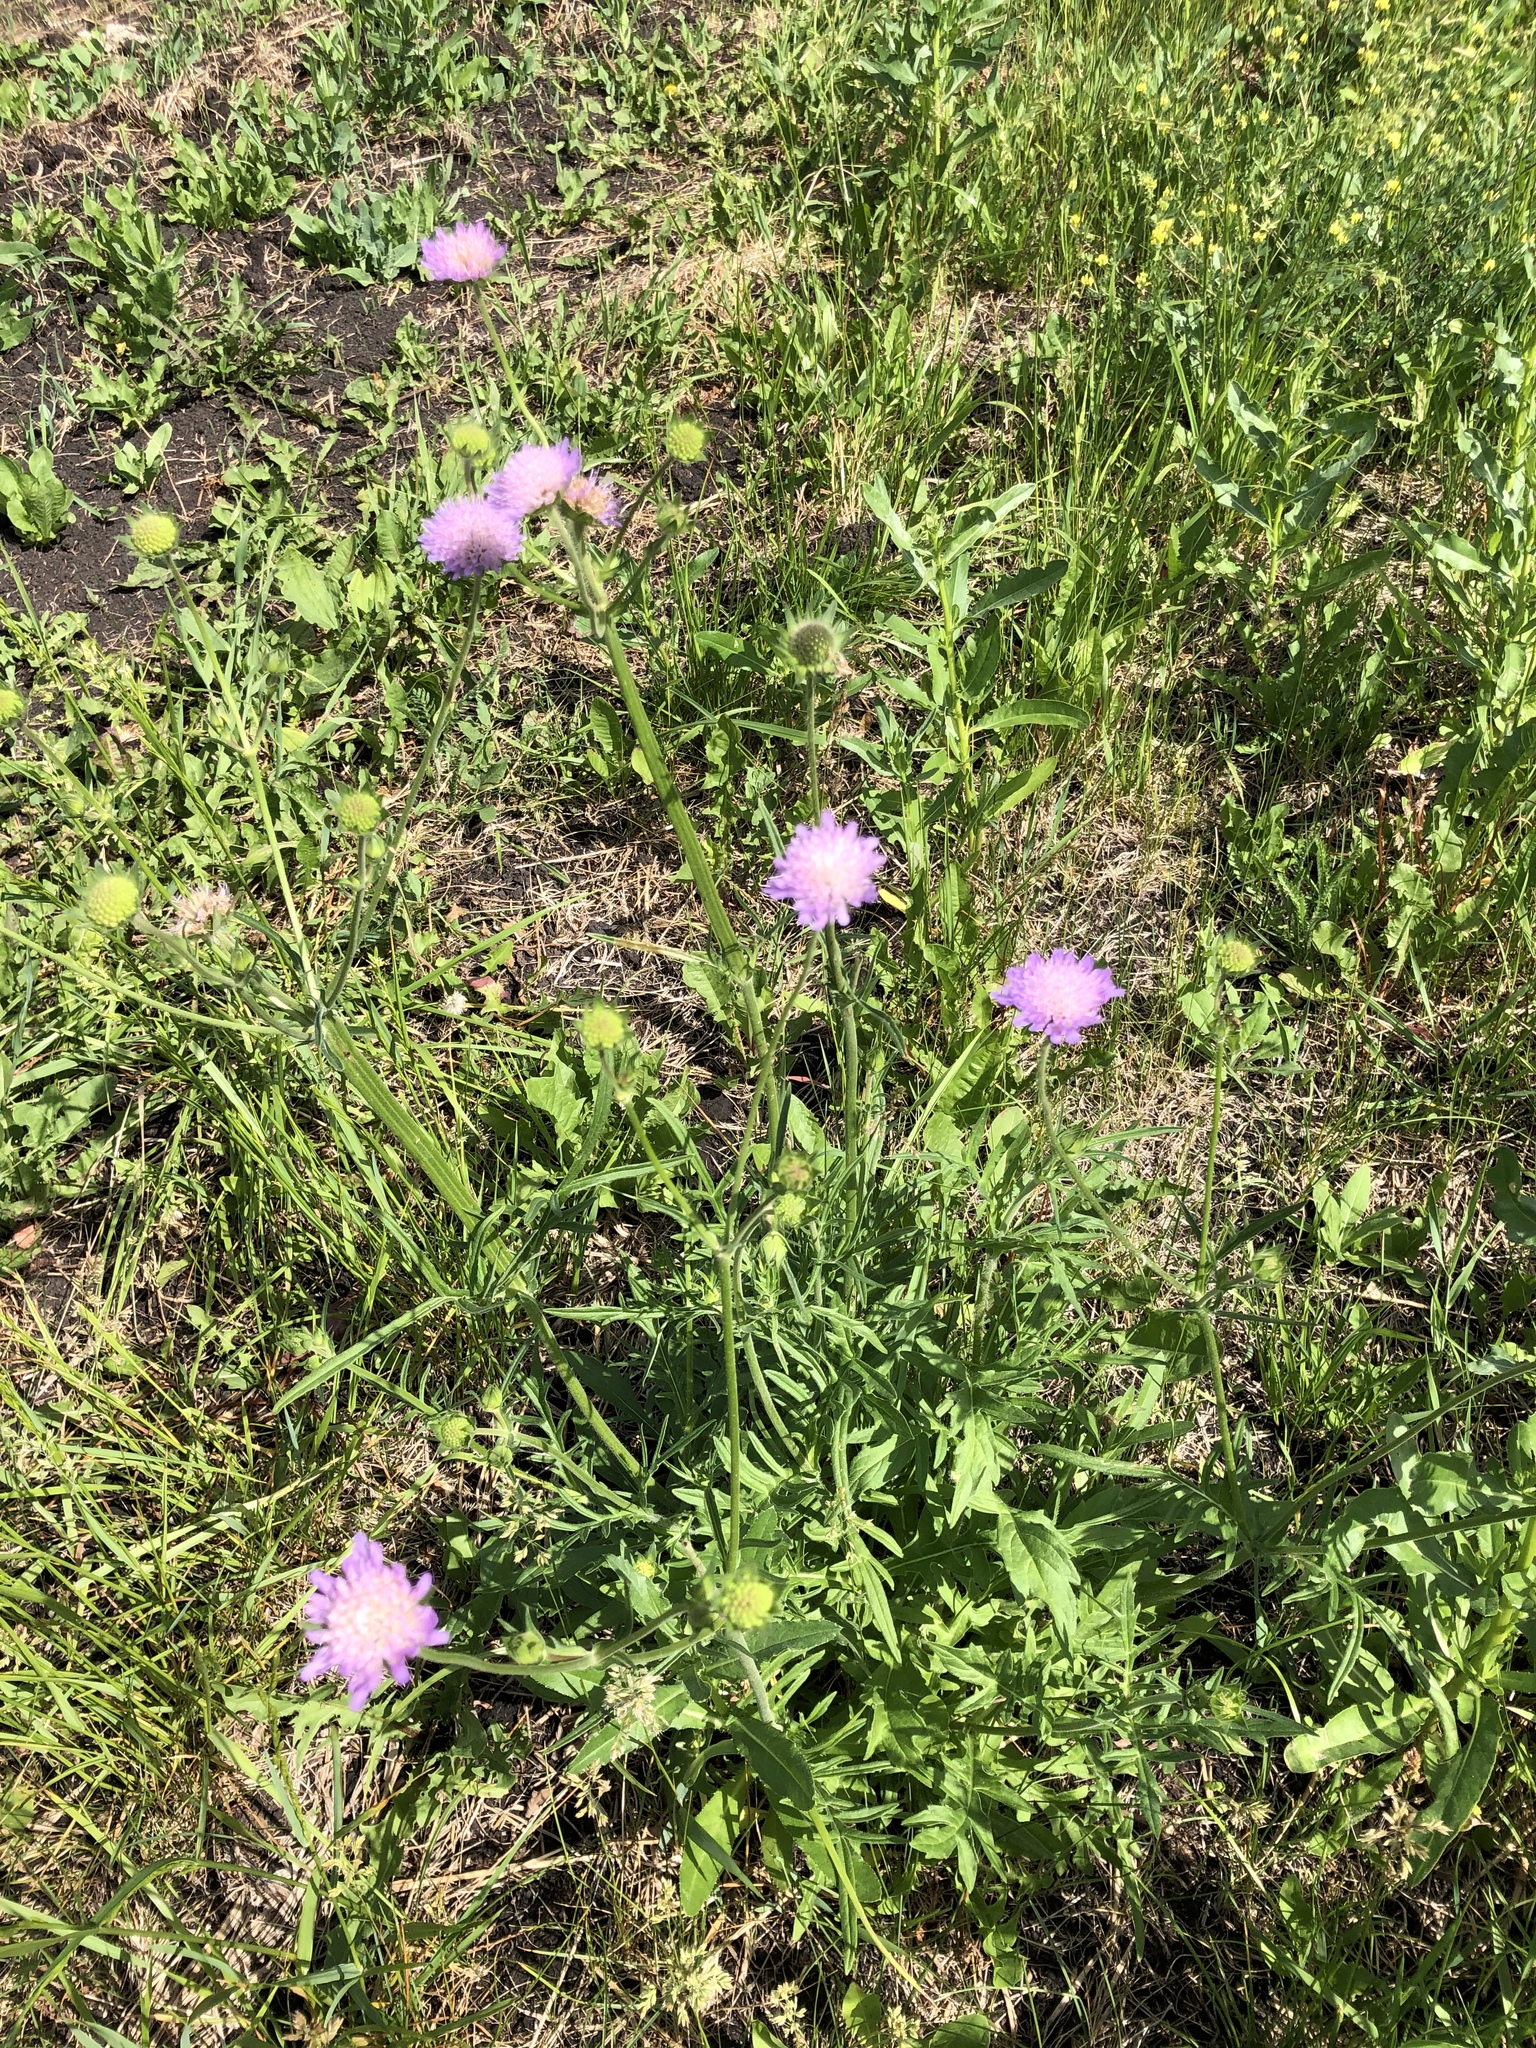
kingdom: Plantae
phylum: Tracheophyta
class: Magnoliopsida
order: Dipsacales
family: Caprifoliaceae
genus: Knautia
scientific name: Knautia arvensis
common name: Field scabiosa
